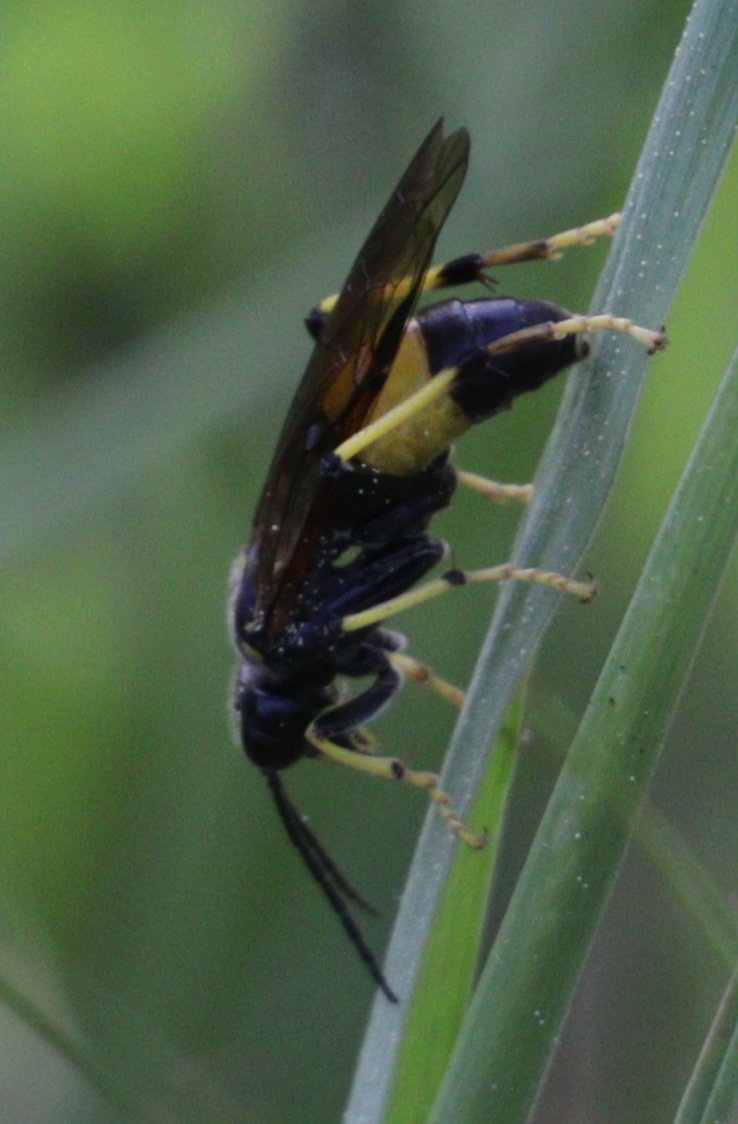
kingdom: Animalia
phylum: Arthropoda
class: Insecta
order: Hymenoptera
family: Tenthredinidae
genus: Tenthredo
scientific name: Tenthredo maculata
